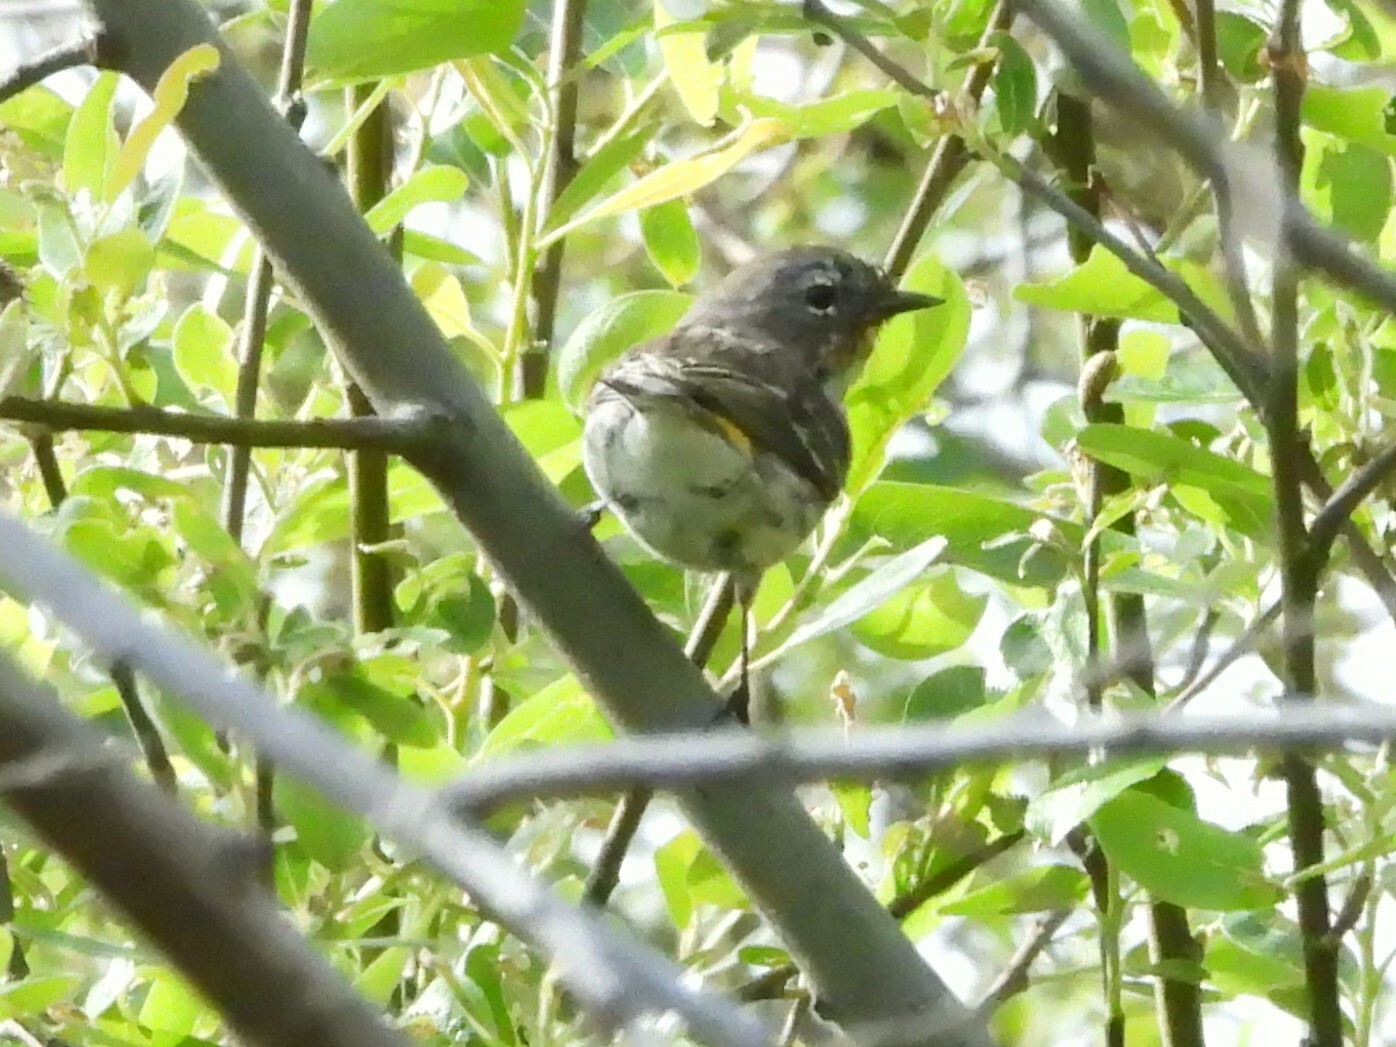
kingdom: Animalia
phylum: Chordata
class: Aves
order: Passeriformes
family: Parulidae
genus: Setophaga
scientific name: Setophaga coronata
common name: Myrtle warbler
